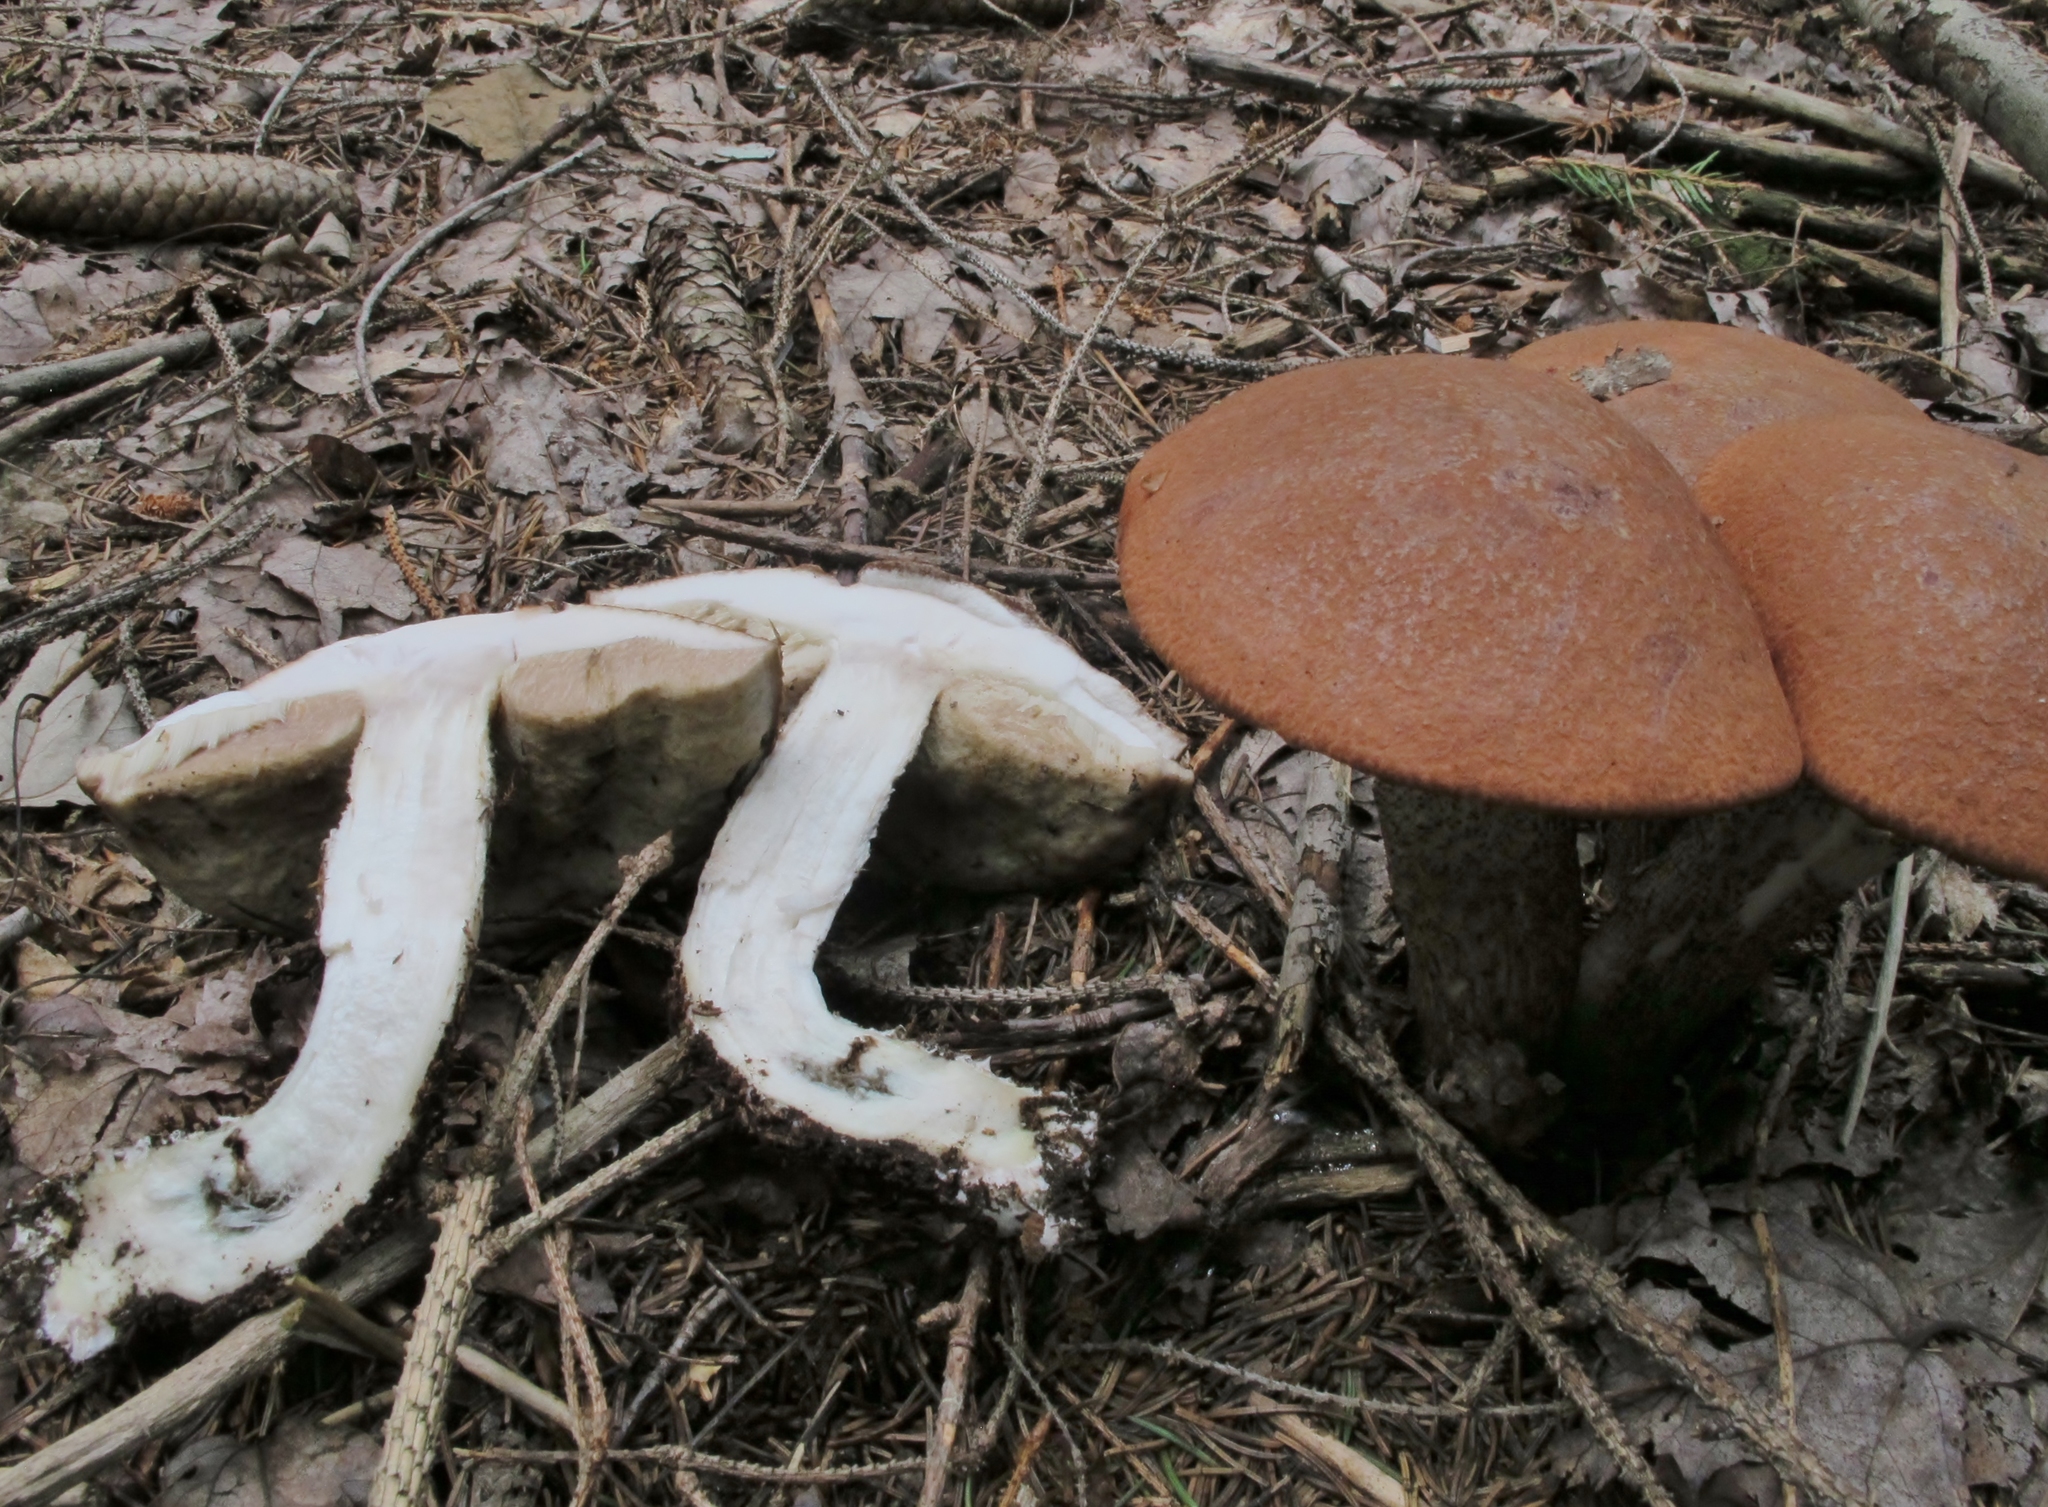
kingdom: Fungi
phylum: Basidiomycota
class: Agaricomycetes
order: Boletales
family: Boletaceae
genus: Leccinum
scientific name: Leccinum piceinum
